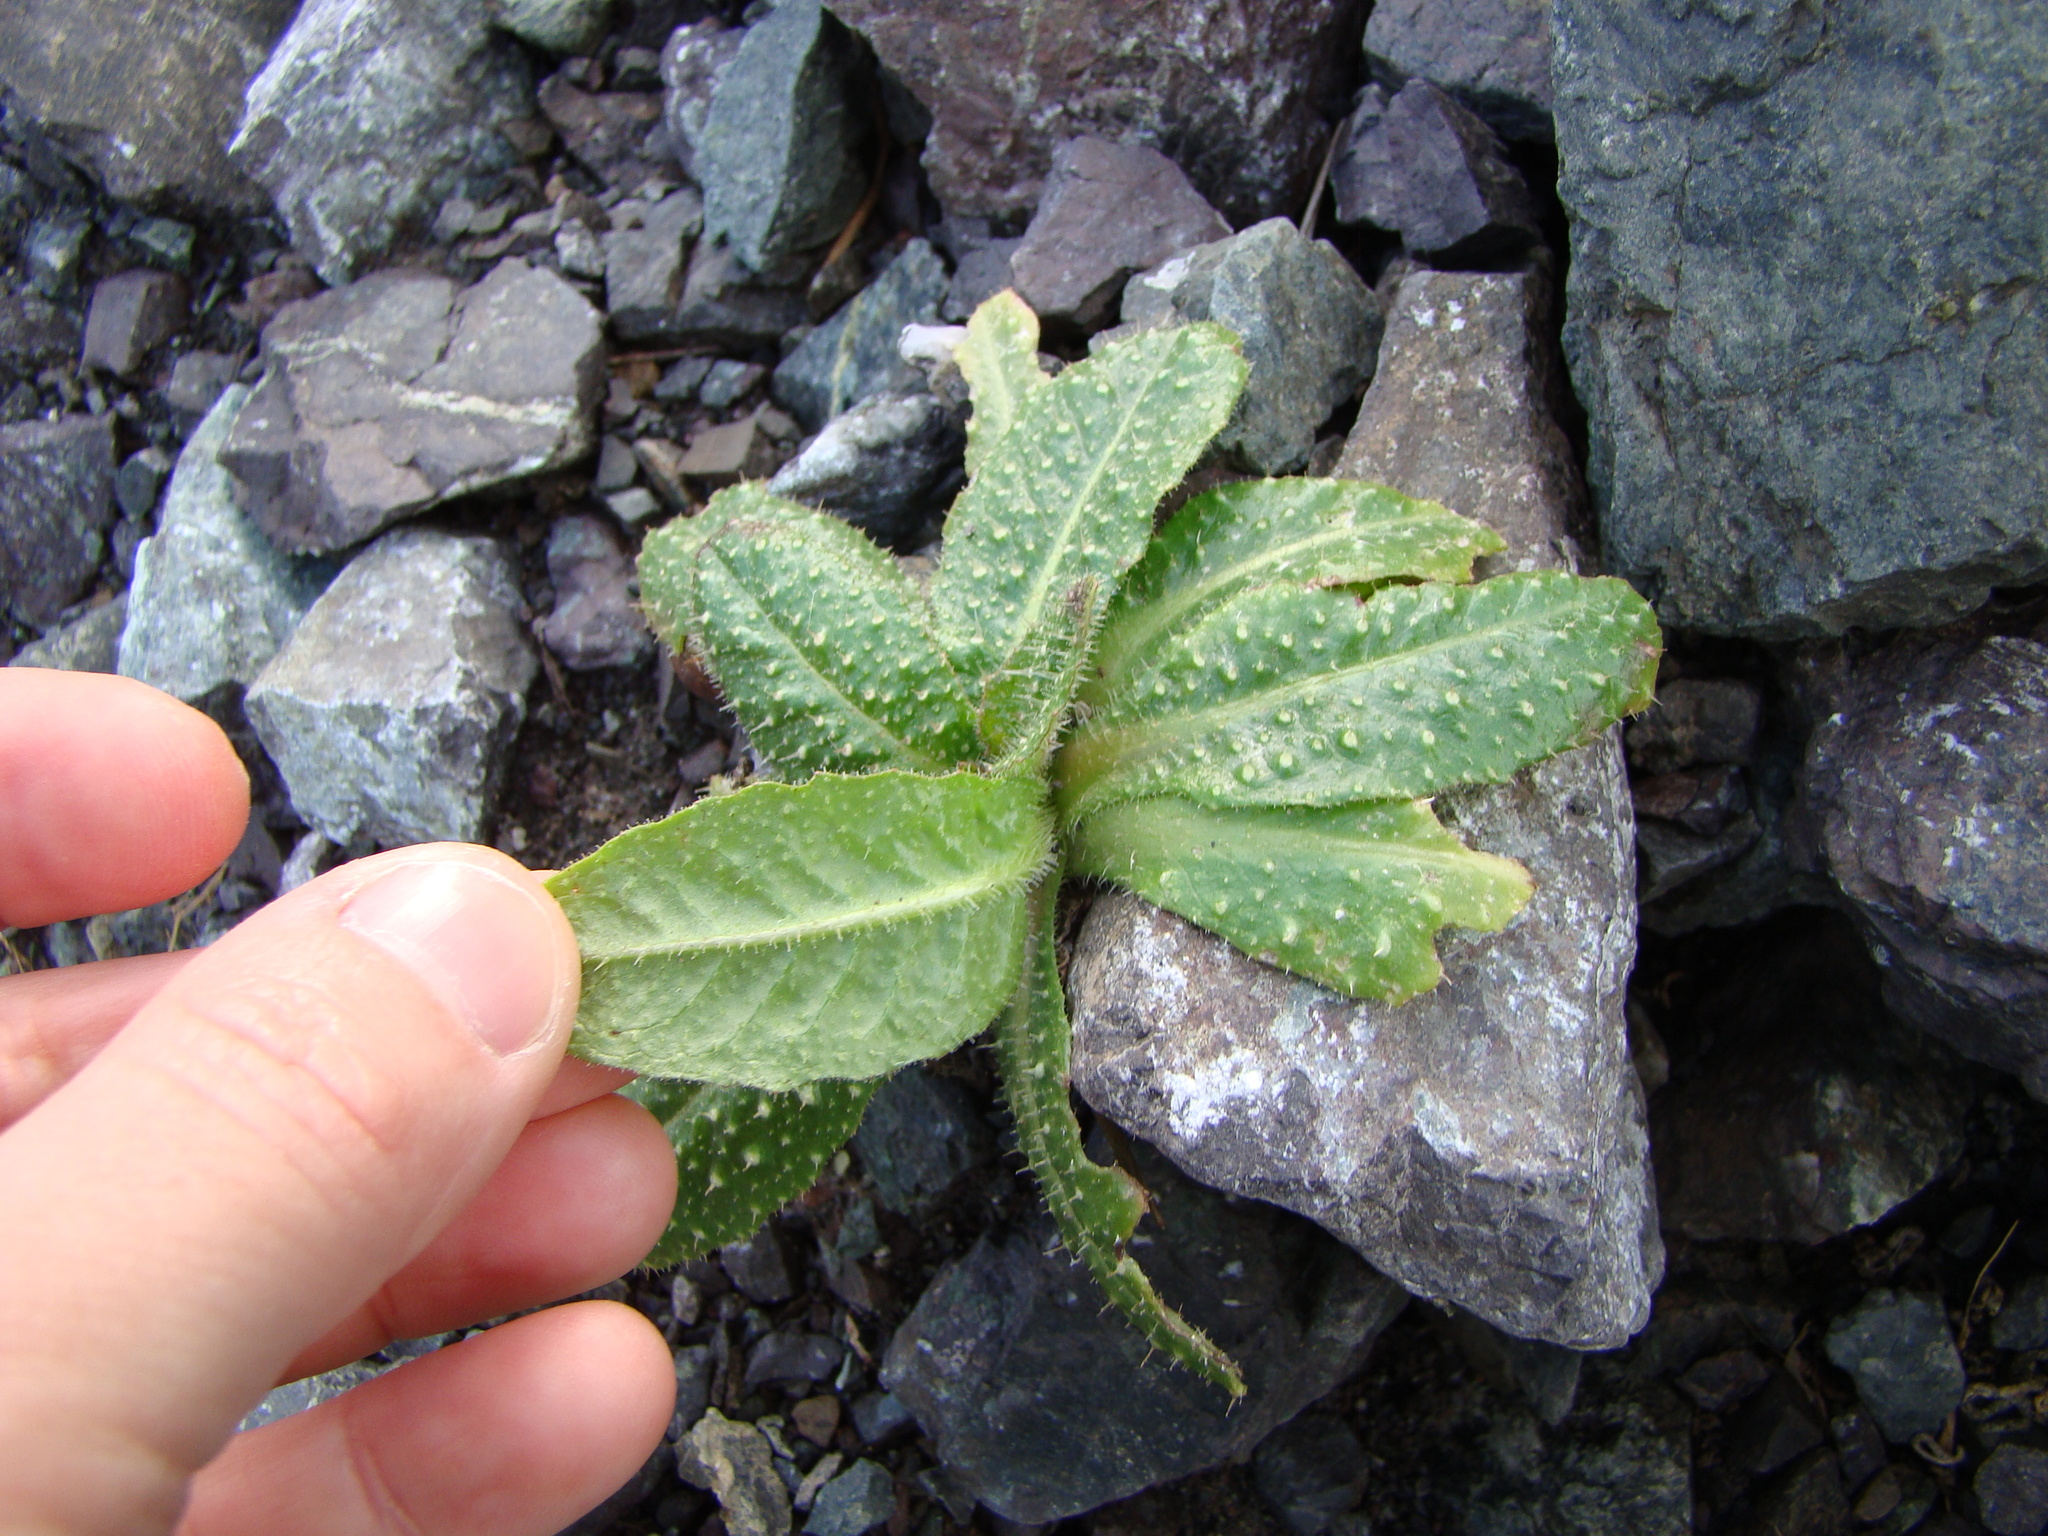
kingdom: Plantae
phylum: Tracheophyta
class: Magnoliopsida
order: Asterales
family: Asteraceae
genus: Helminthotheca
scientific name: Helminthotheca echioides
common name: Ox-tongue
